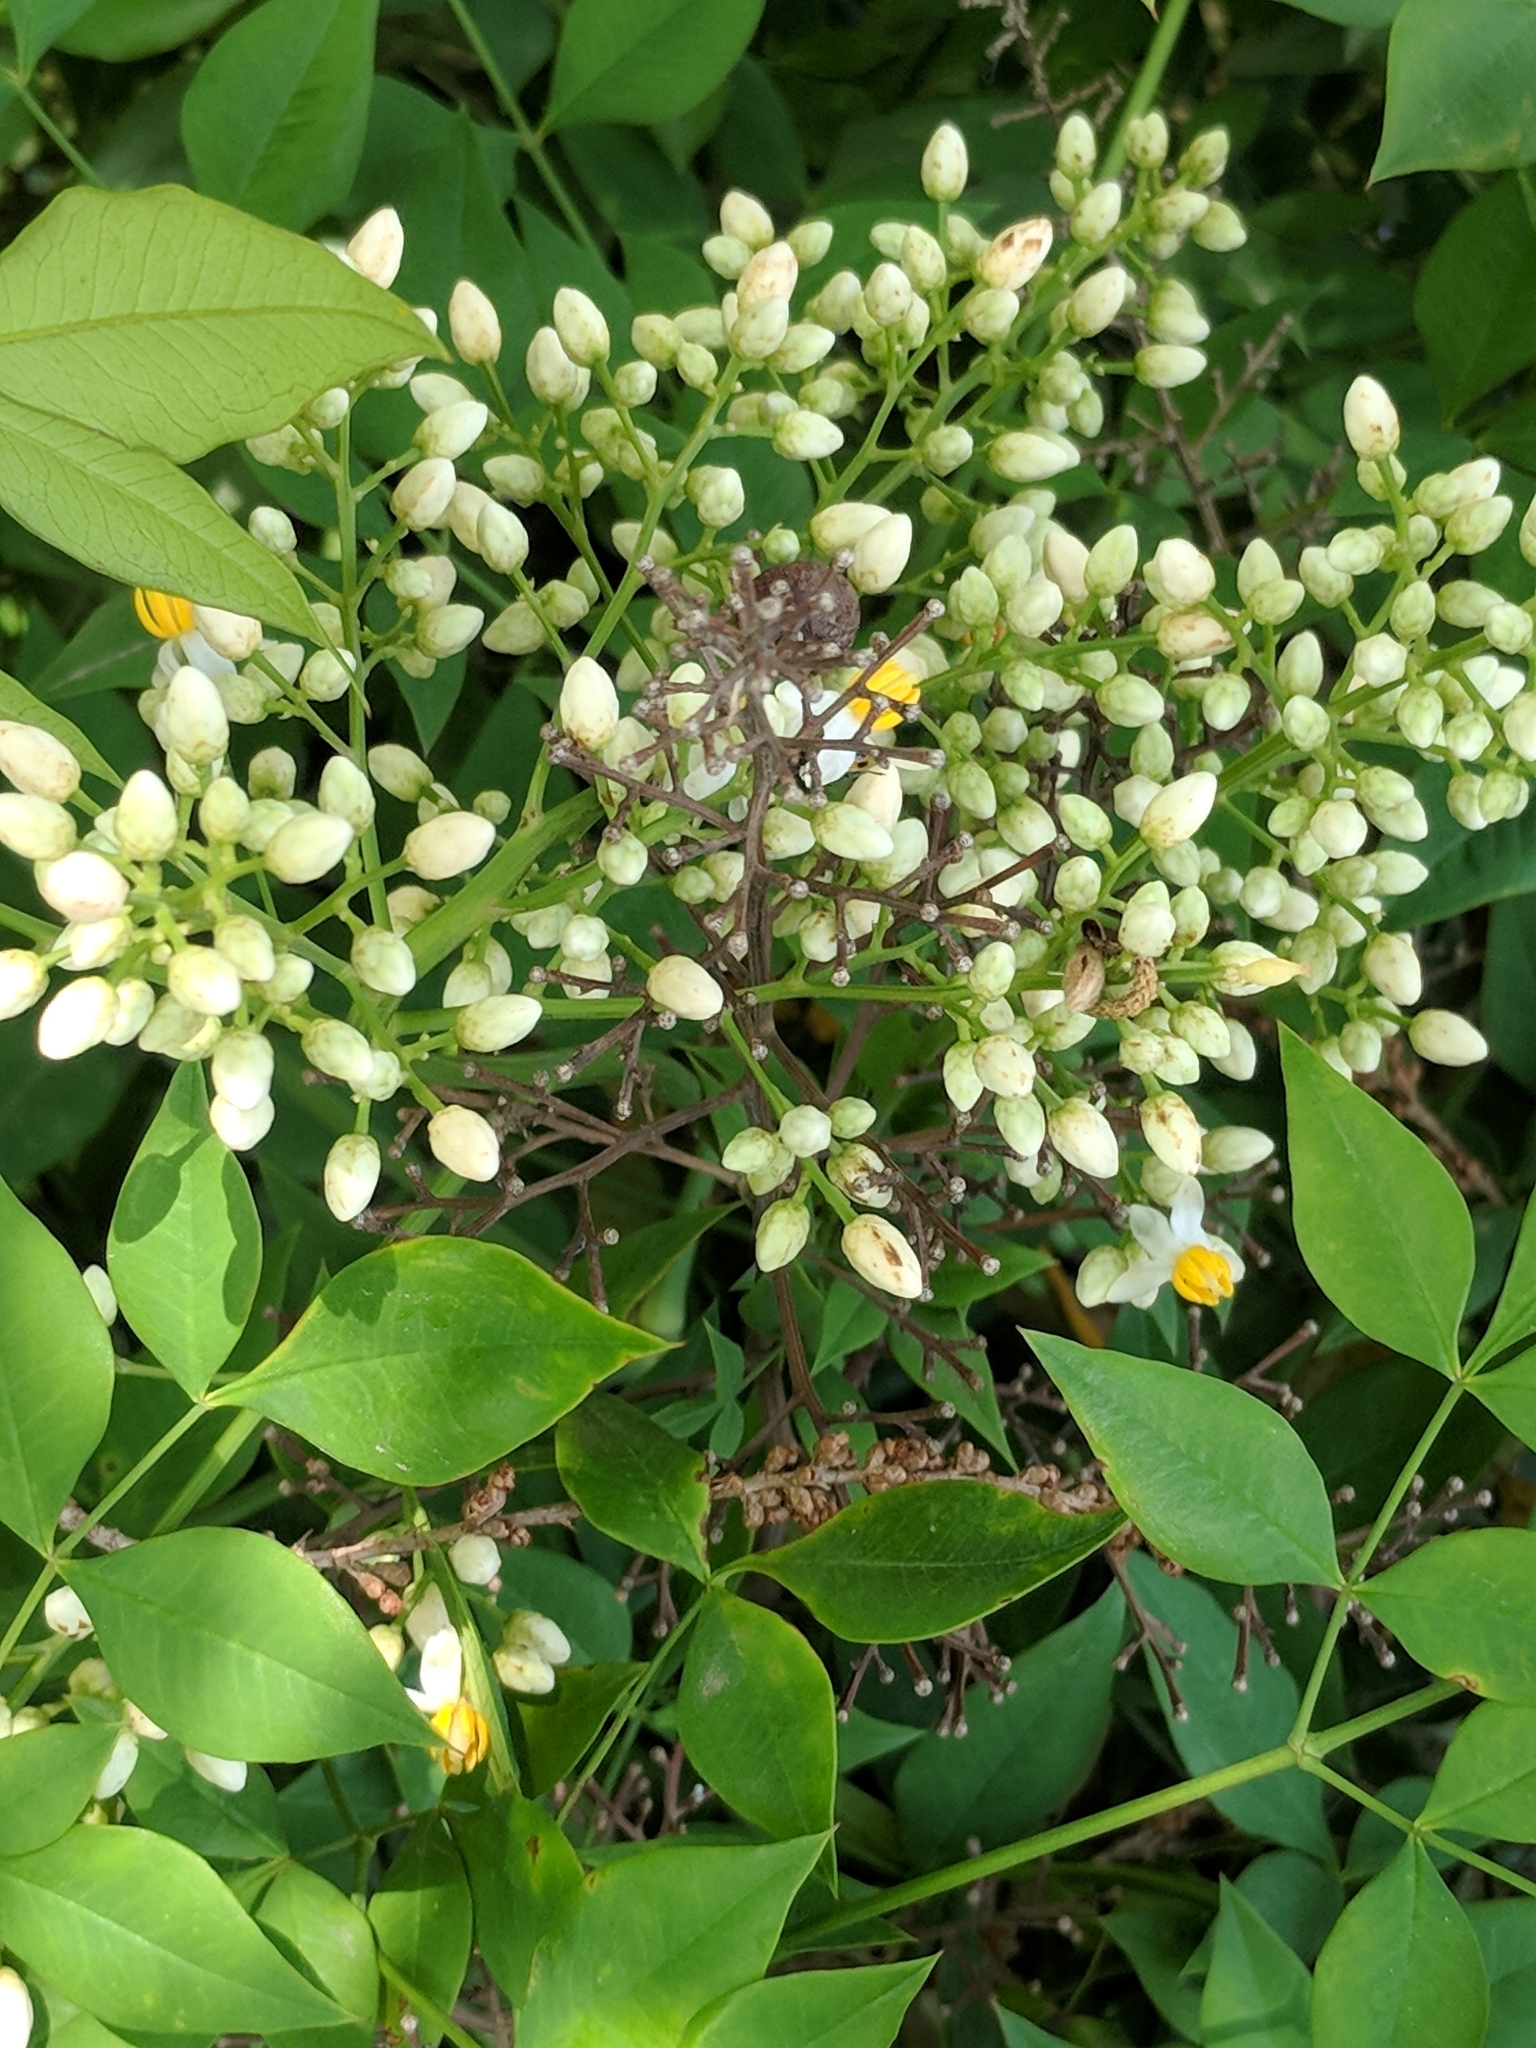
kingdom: Plantae
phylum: Tracheophyta
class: Magnoliopsida
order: Ranunculales
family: Berberidaceae
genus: Nandina
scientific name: Nandina domestica
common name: Sacred bamboo
